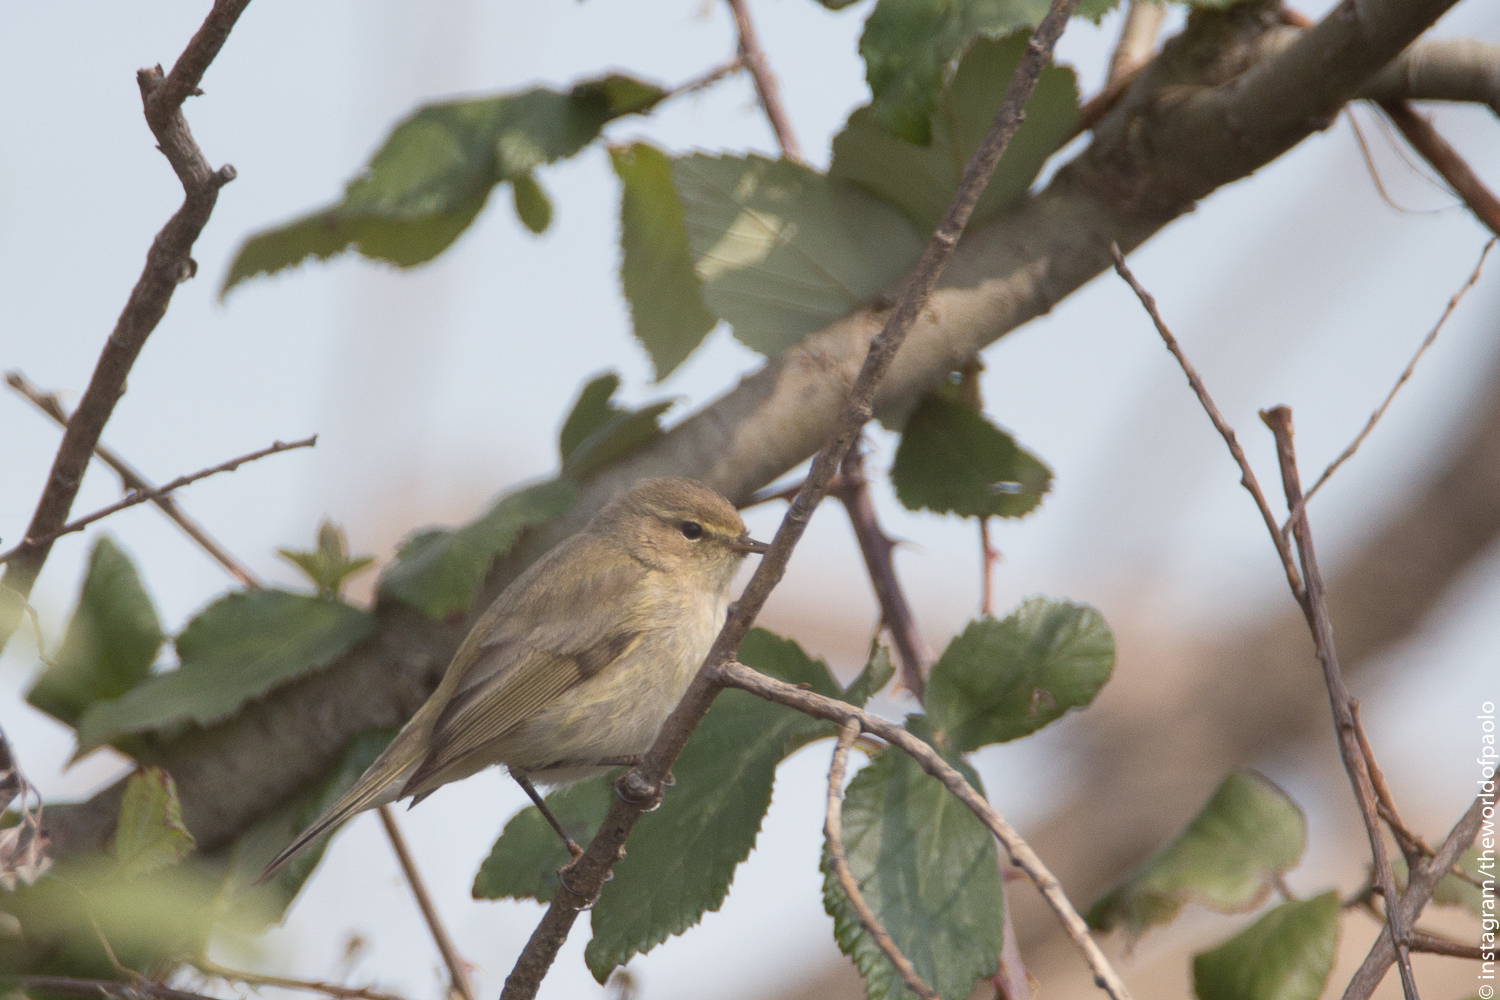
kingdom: Animalia
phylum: Chordata
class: Aves
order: Passeriformes
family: Phylloscopidae
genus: Phylloscopus
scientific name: Phylloscopus collybita
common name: Common chiffchaff
